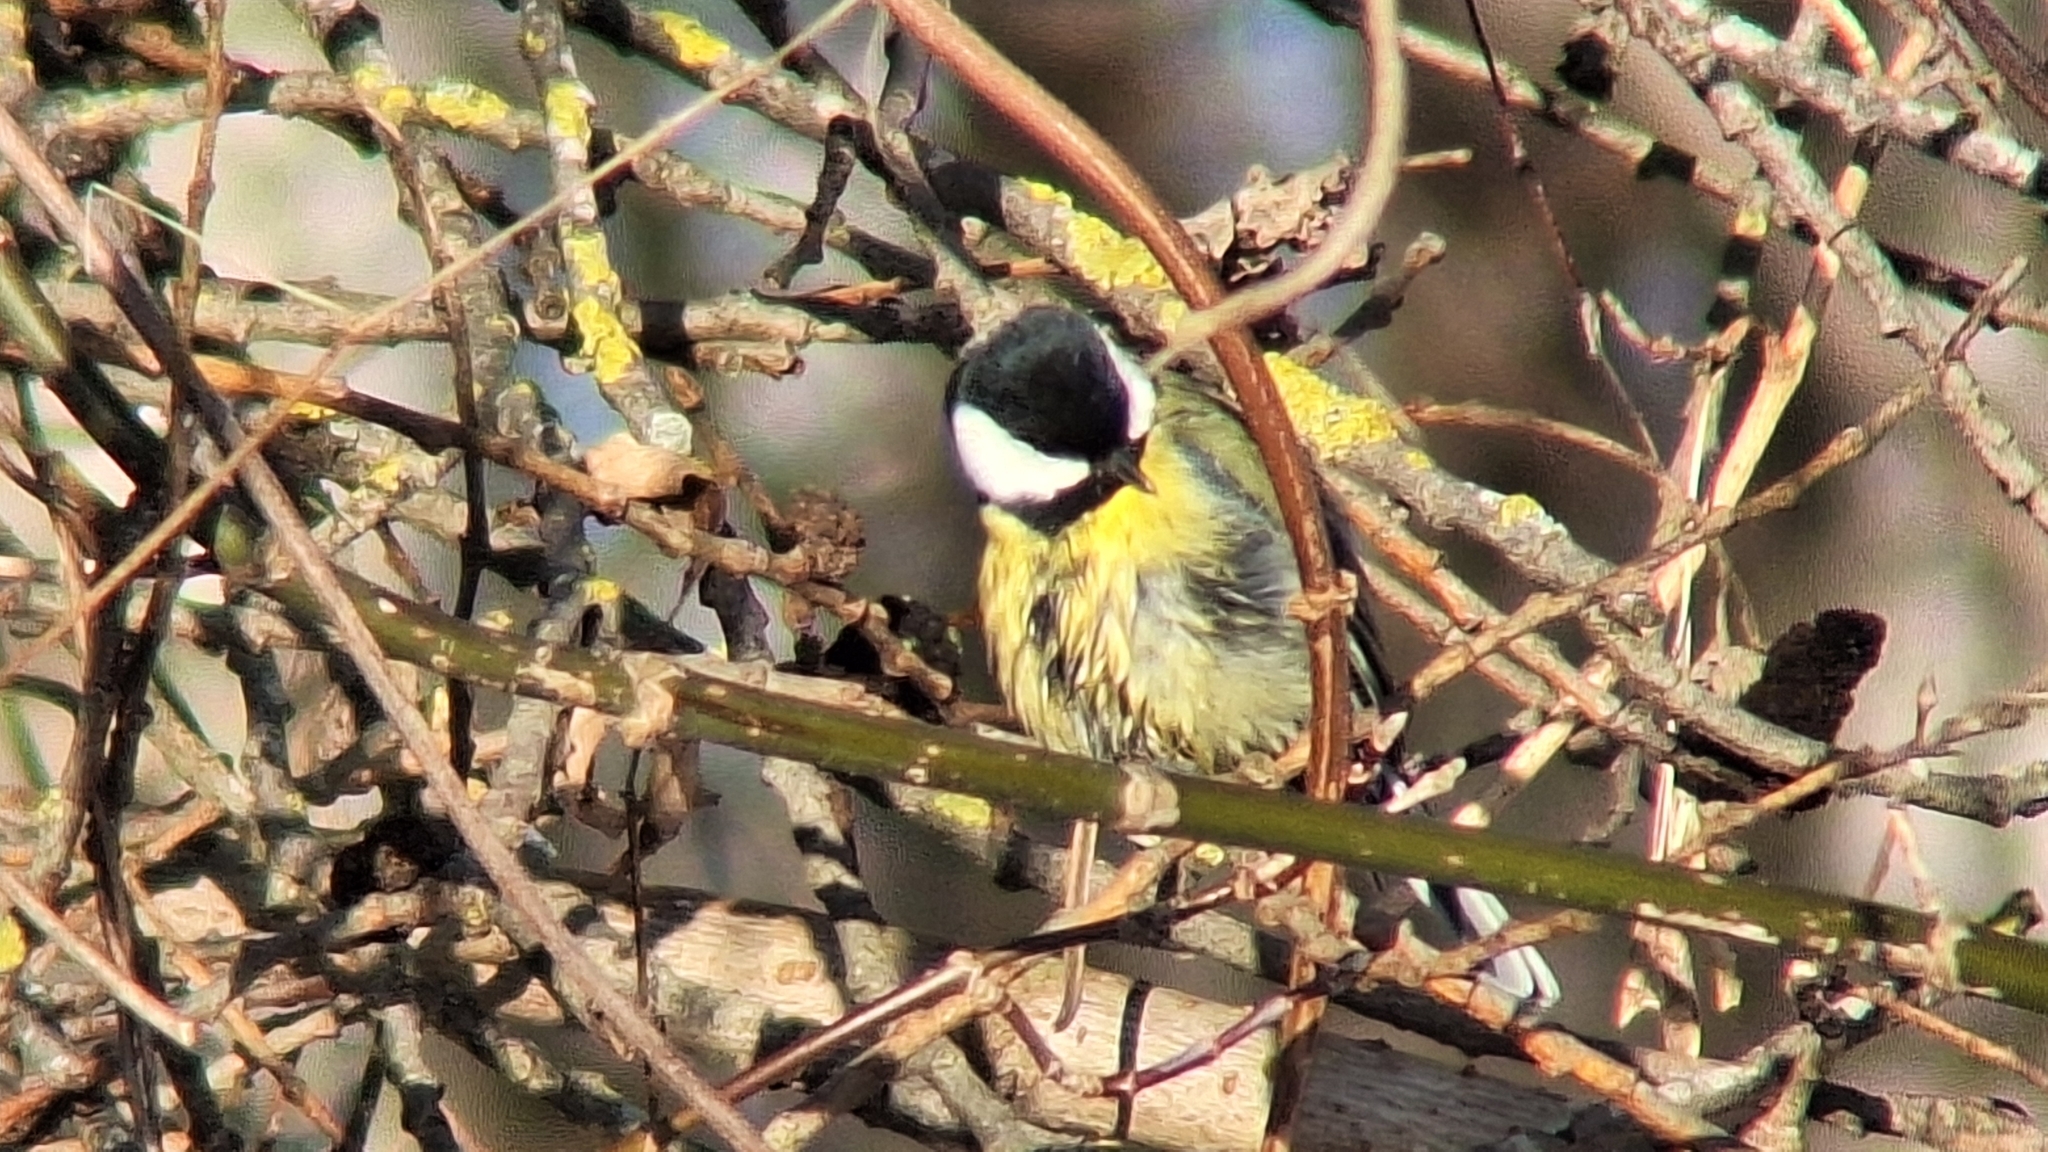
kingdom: Animalia
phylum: Chordata
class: Aves
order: Passeriformes
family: Paridae
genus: Parus
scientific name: Parus major
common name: Great tit
